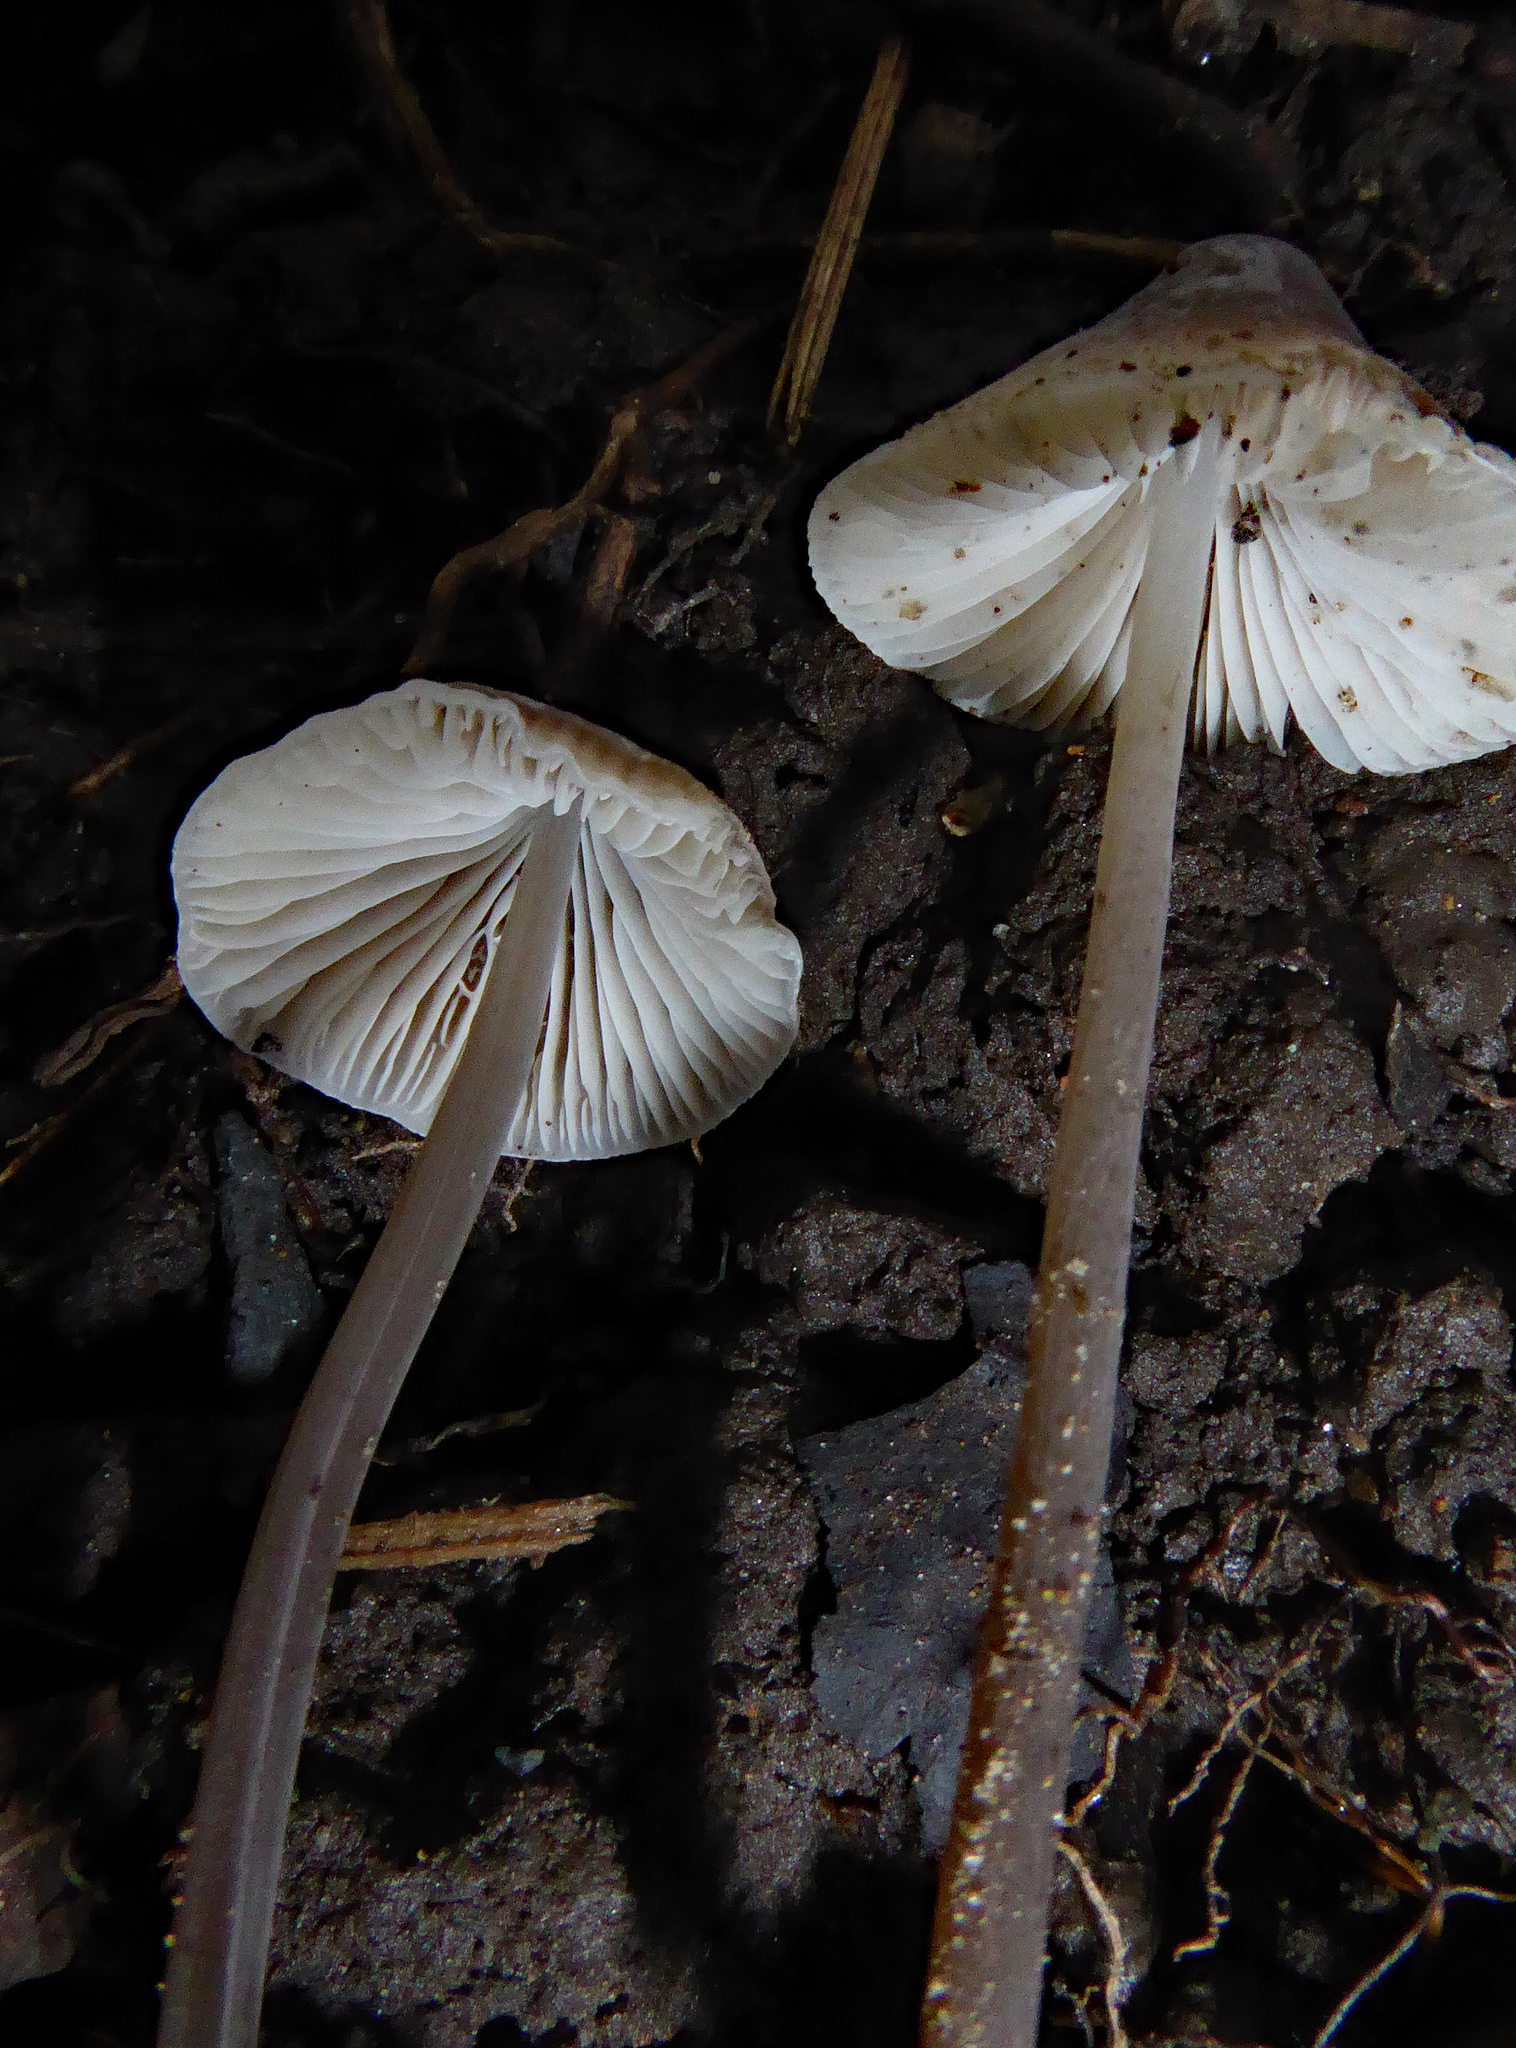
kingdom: Fungi
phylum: Basidiomycota
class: Agaricomycetes
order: Agaricales
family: Mycenaceae
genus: Mycena
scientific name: Mycena austrofilopes
